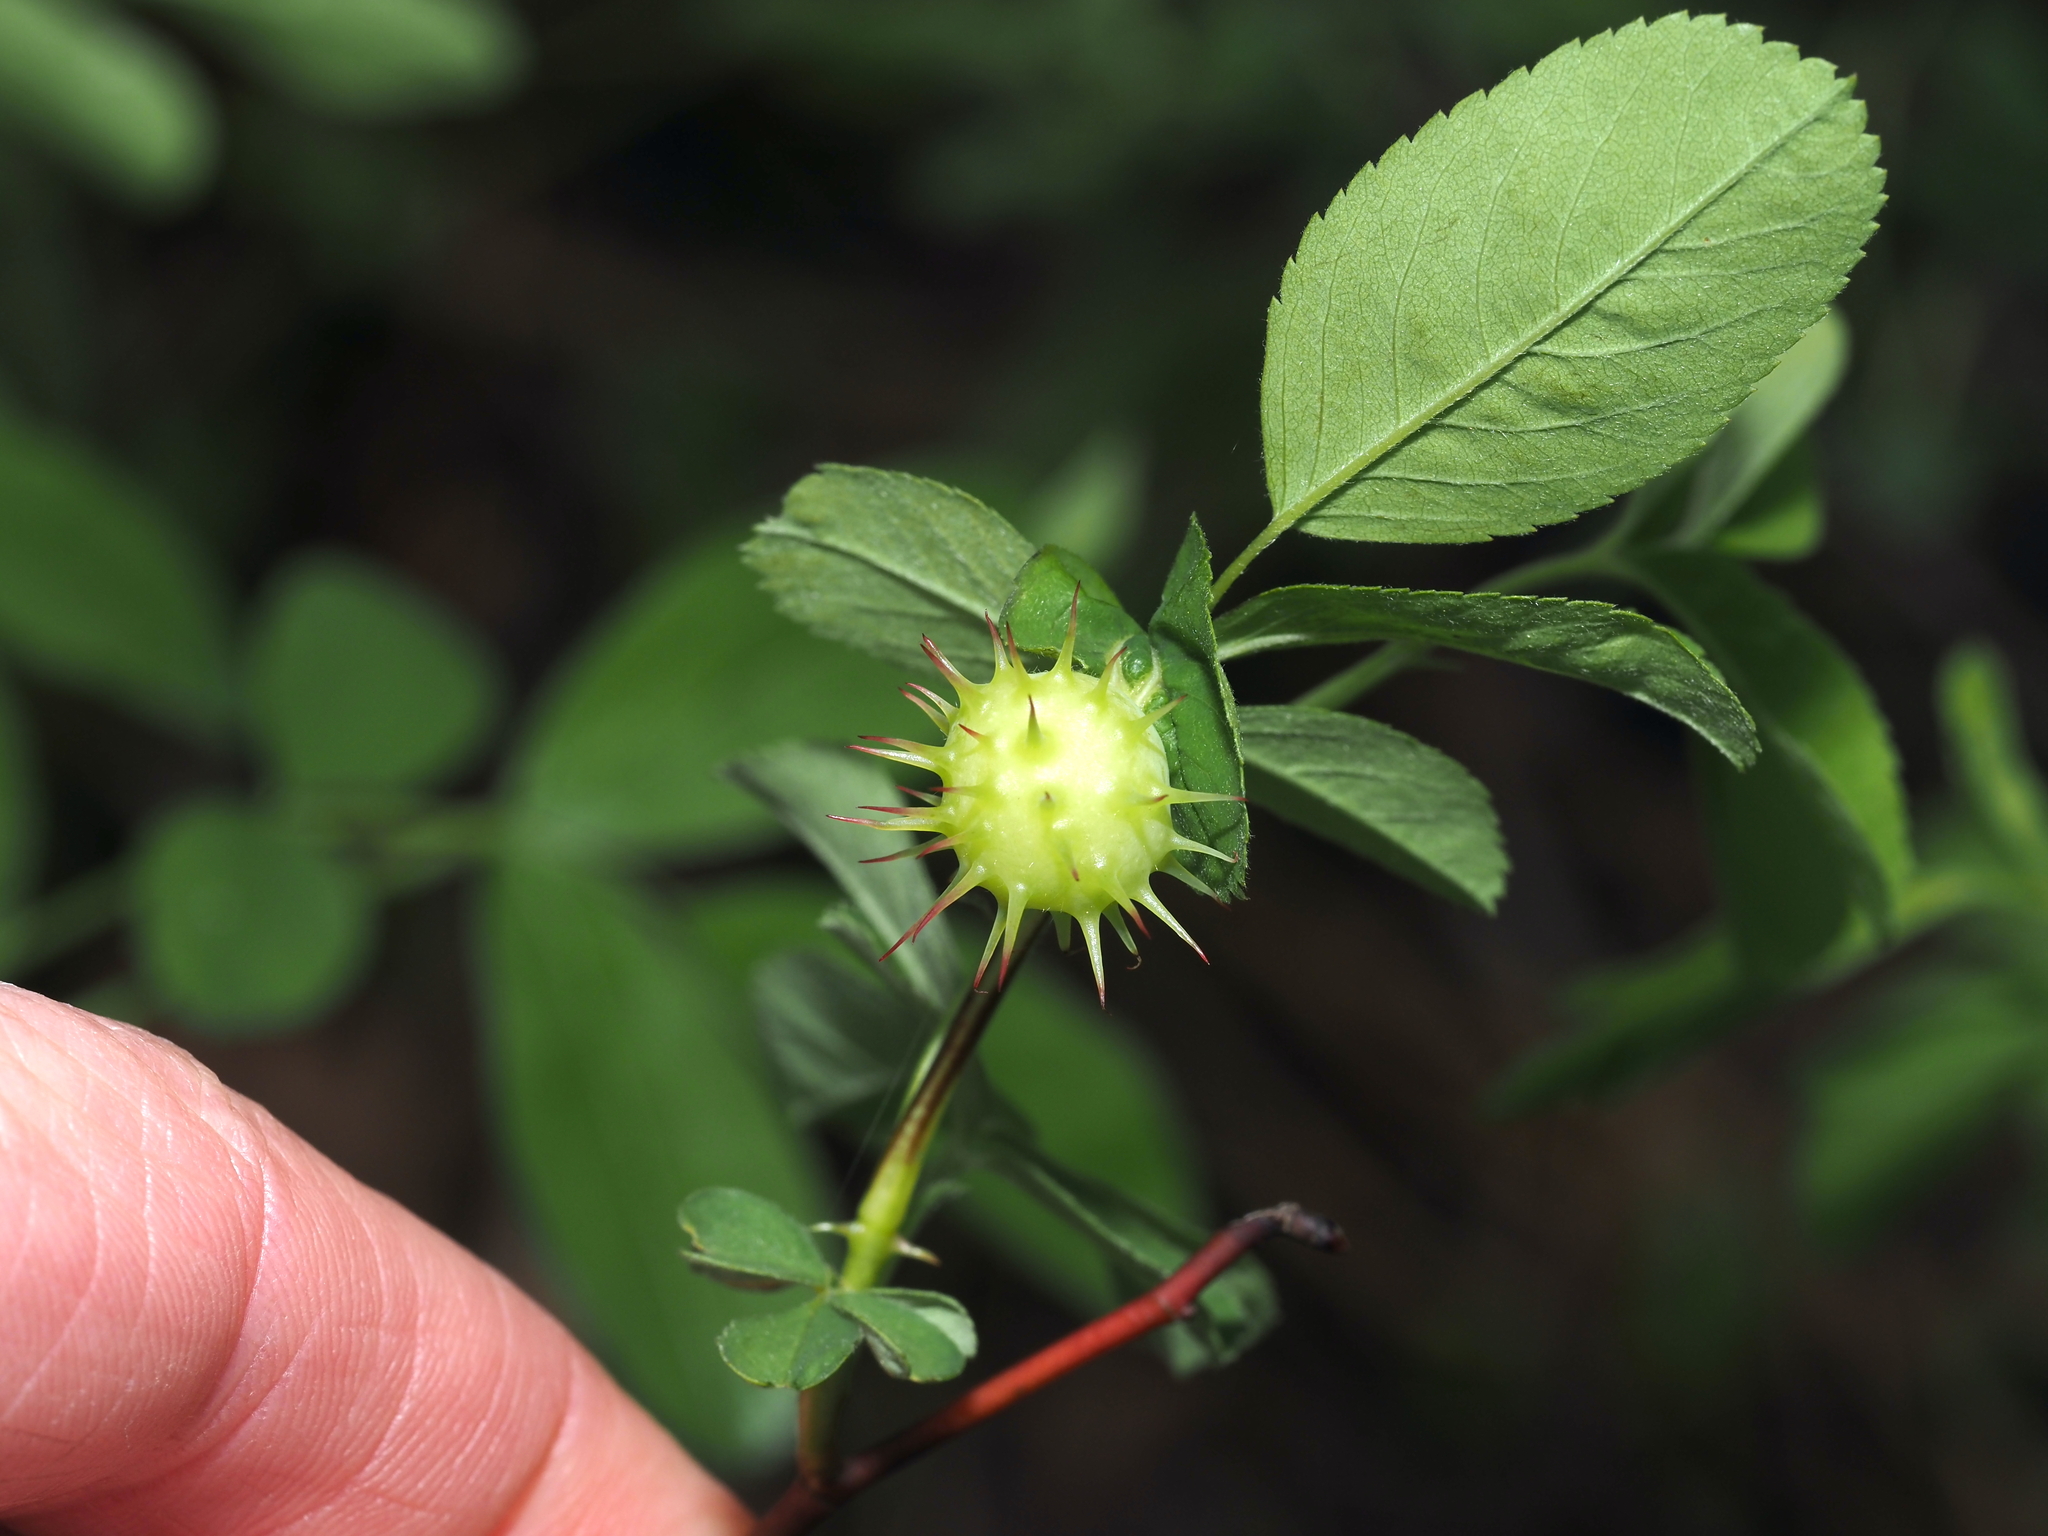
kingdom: Animalia
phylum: Arthropoda
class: Insecta
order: Hymenoptera
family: Cynipidae
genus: Diplolepis
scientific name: Diplolepis polita
